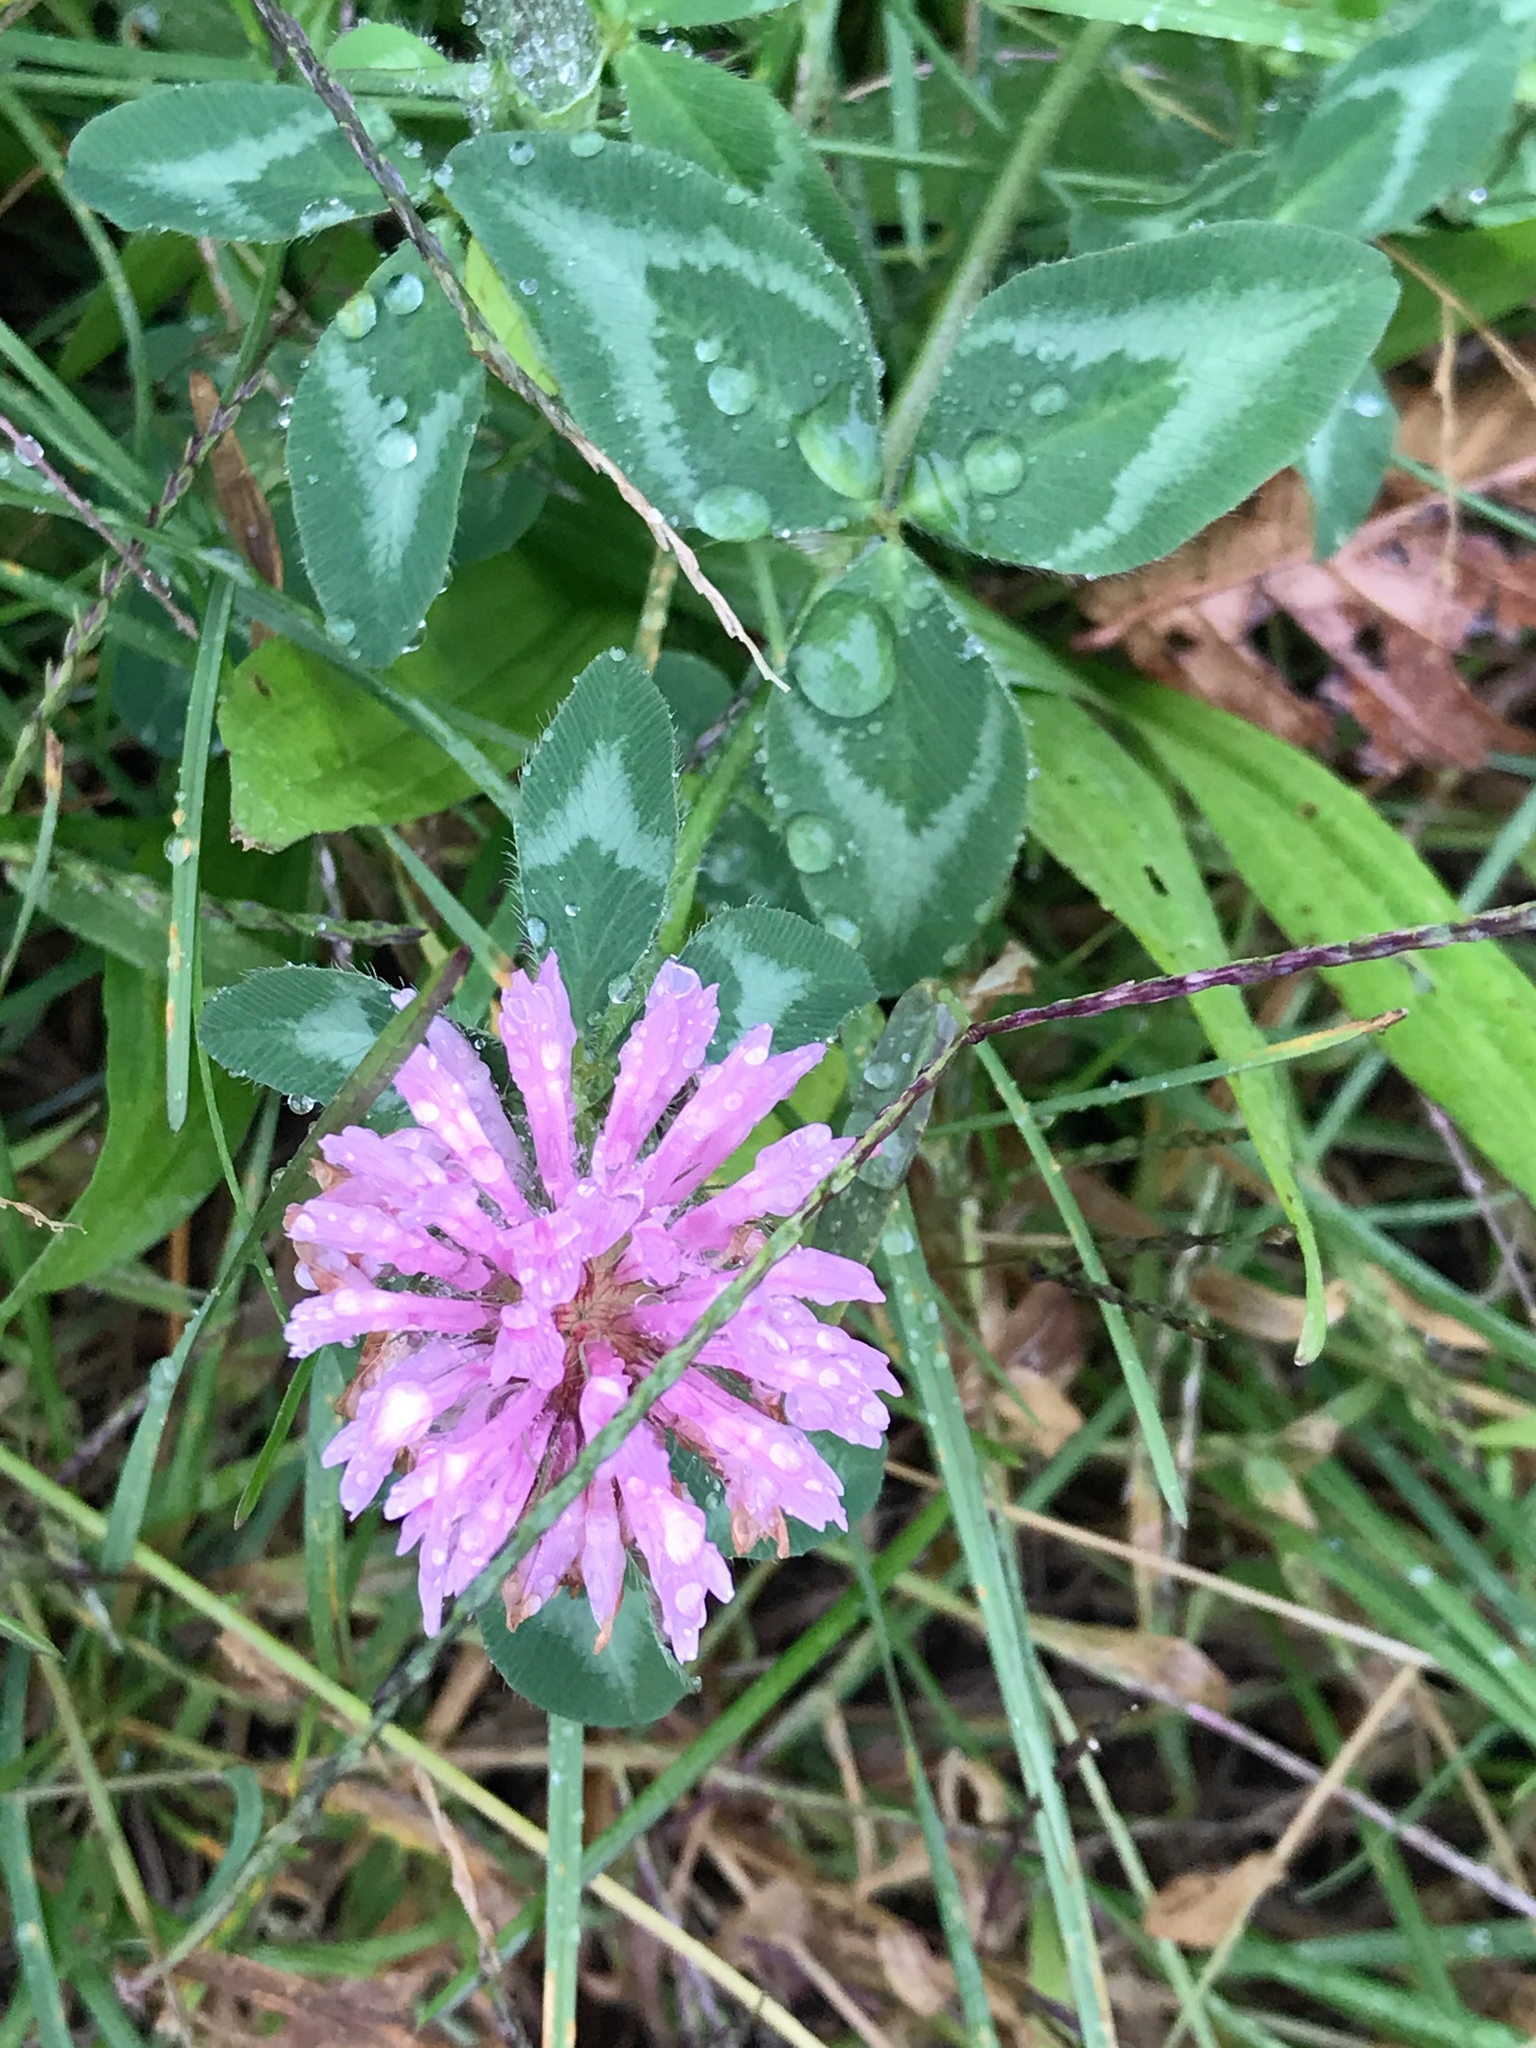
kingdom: Plantae
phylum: Tracheophyta
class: Magnoliopsida
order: Fabales
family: Fabaceae
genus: Trifolium
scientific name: Trifolium pratense
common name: Red clover
